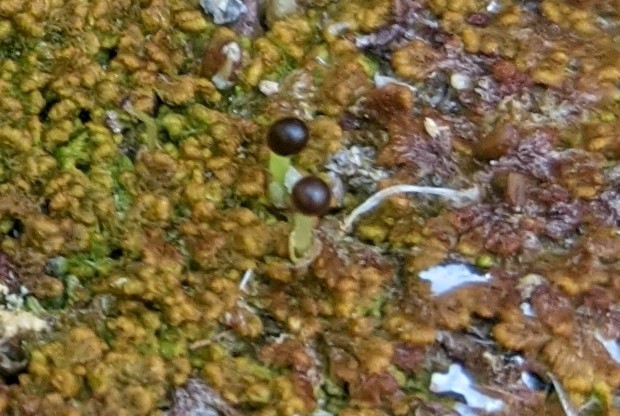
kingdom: Plantae
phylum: Marchantiophyta
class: Jungermanniopsida
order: Ptilidiales
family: Ptilidiaceae
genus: Ptilidium
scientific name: Ptilidium pulcherrimum
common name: Tree fringewort
